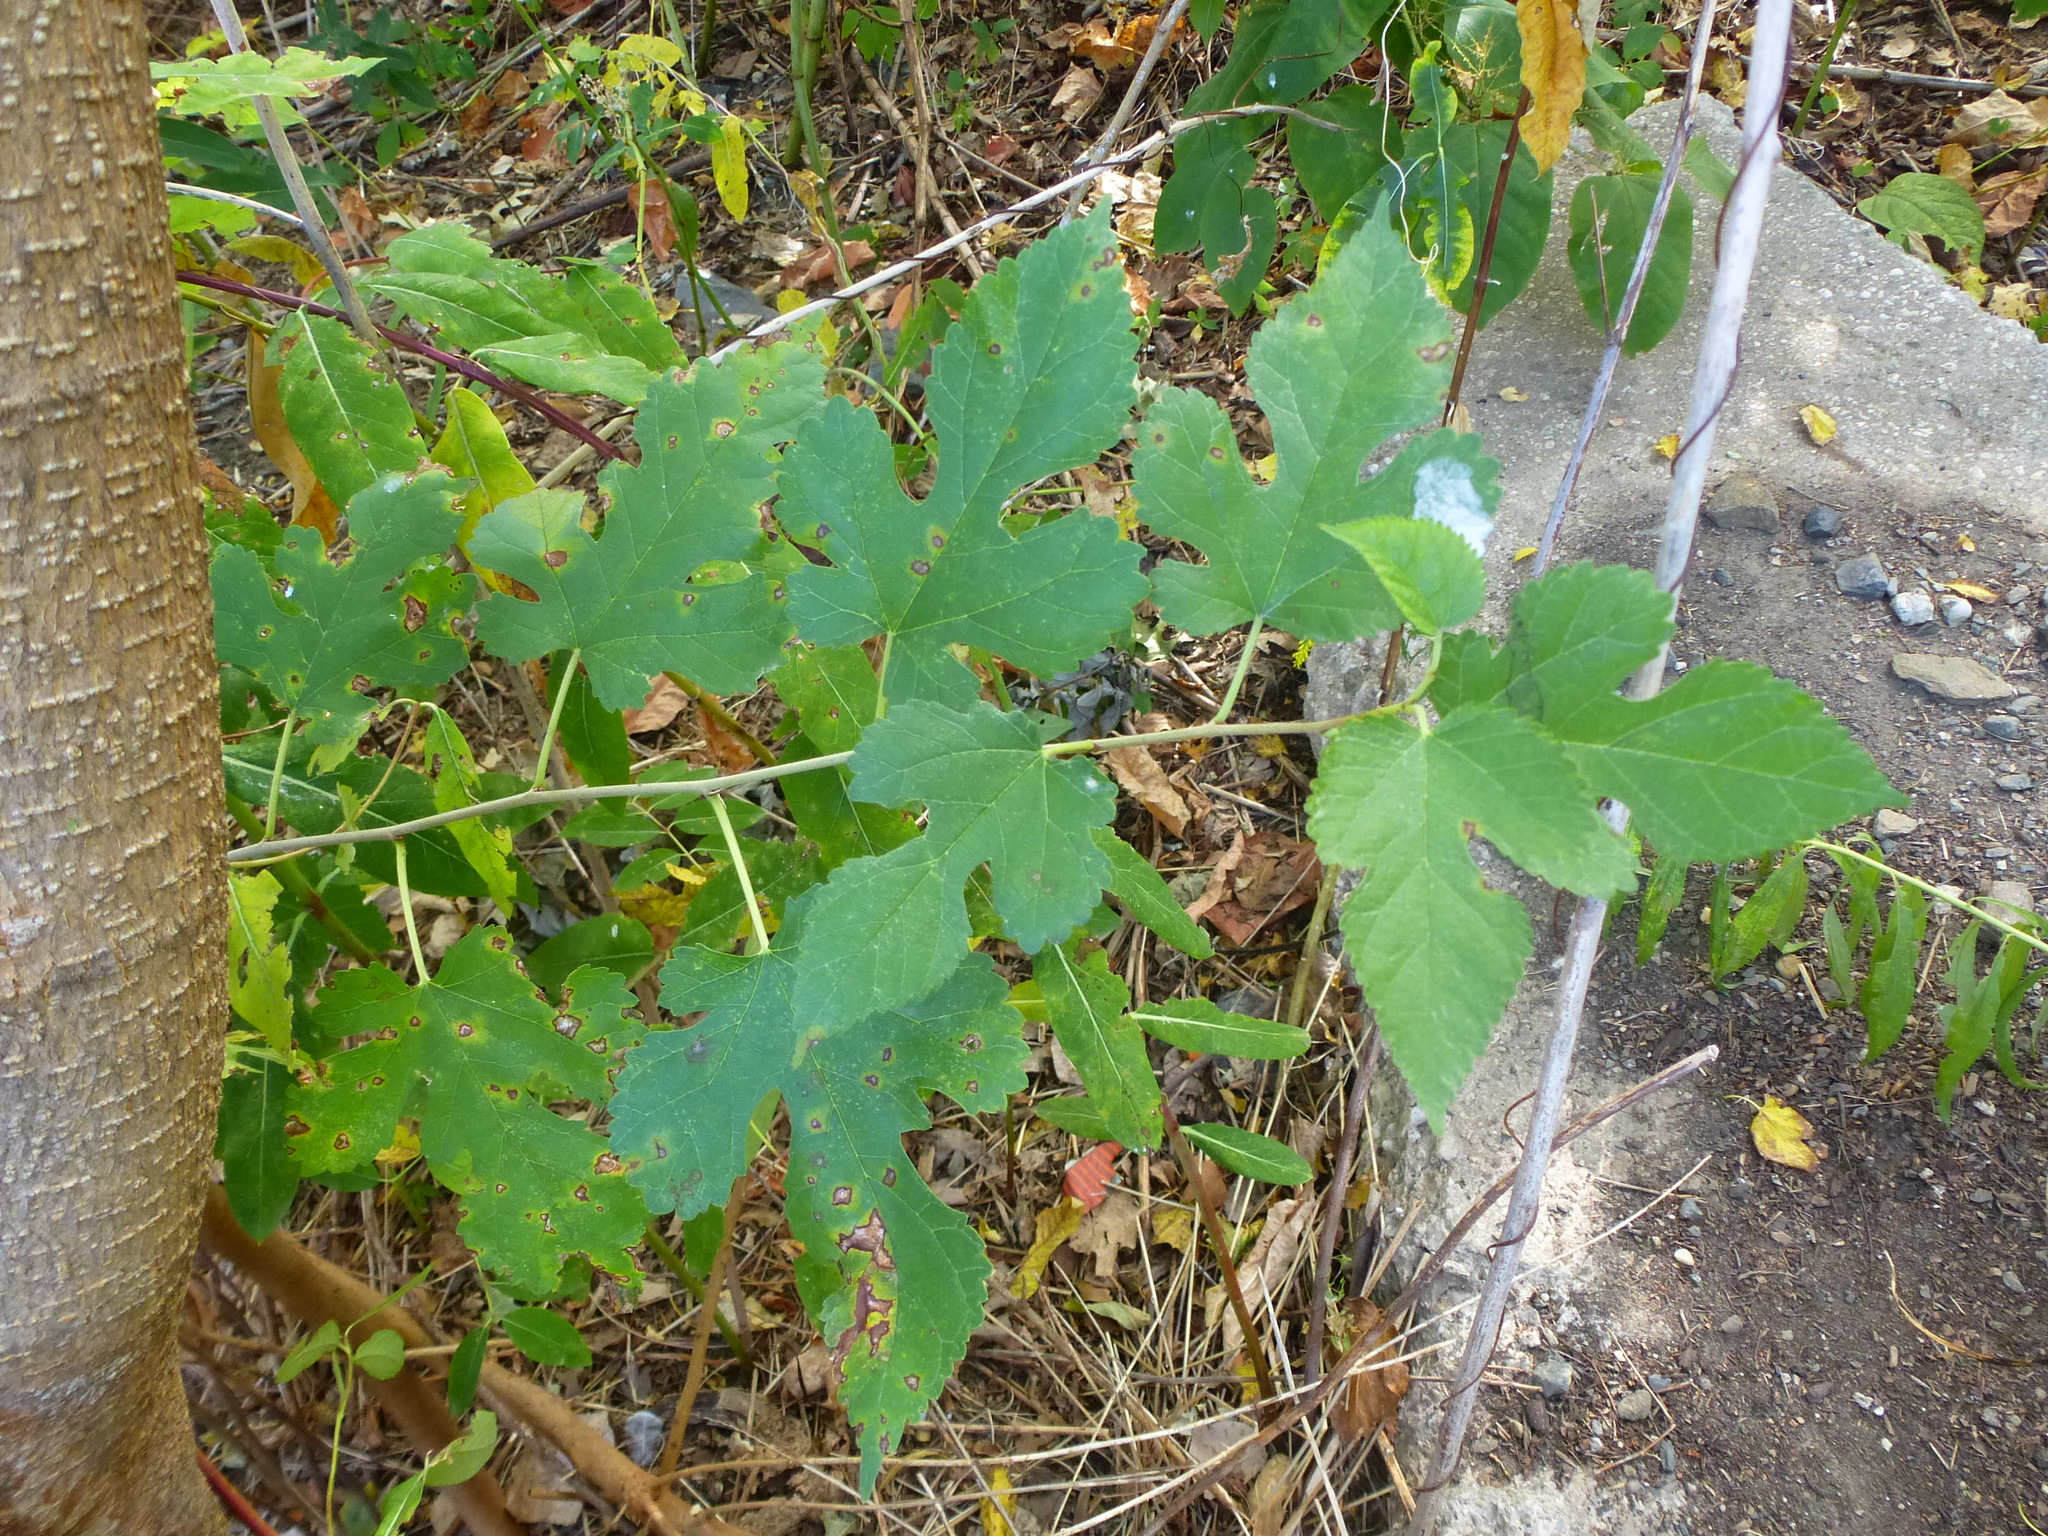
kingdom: Plantae
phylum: Tracheophyta
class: Magnoliopsida
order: Rosales
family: Moraceae
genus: Morus
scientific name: Morus alba
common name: White mulberry
